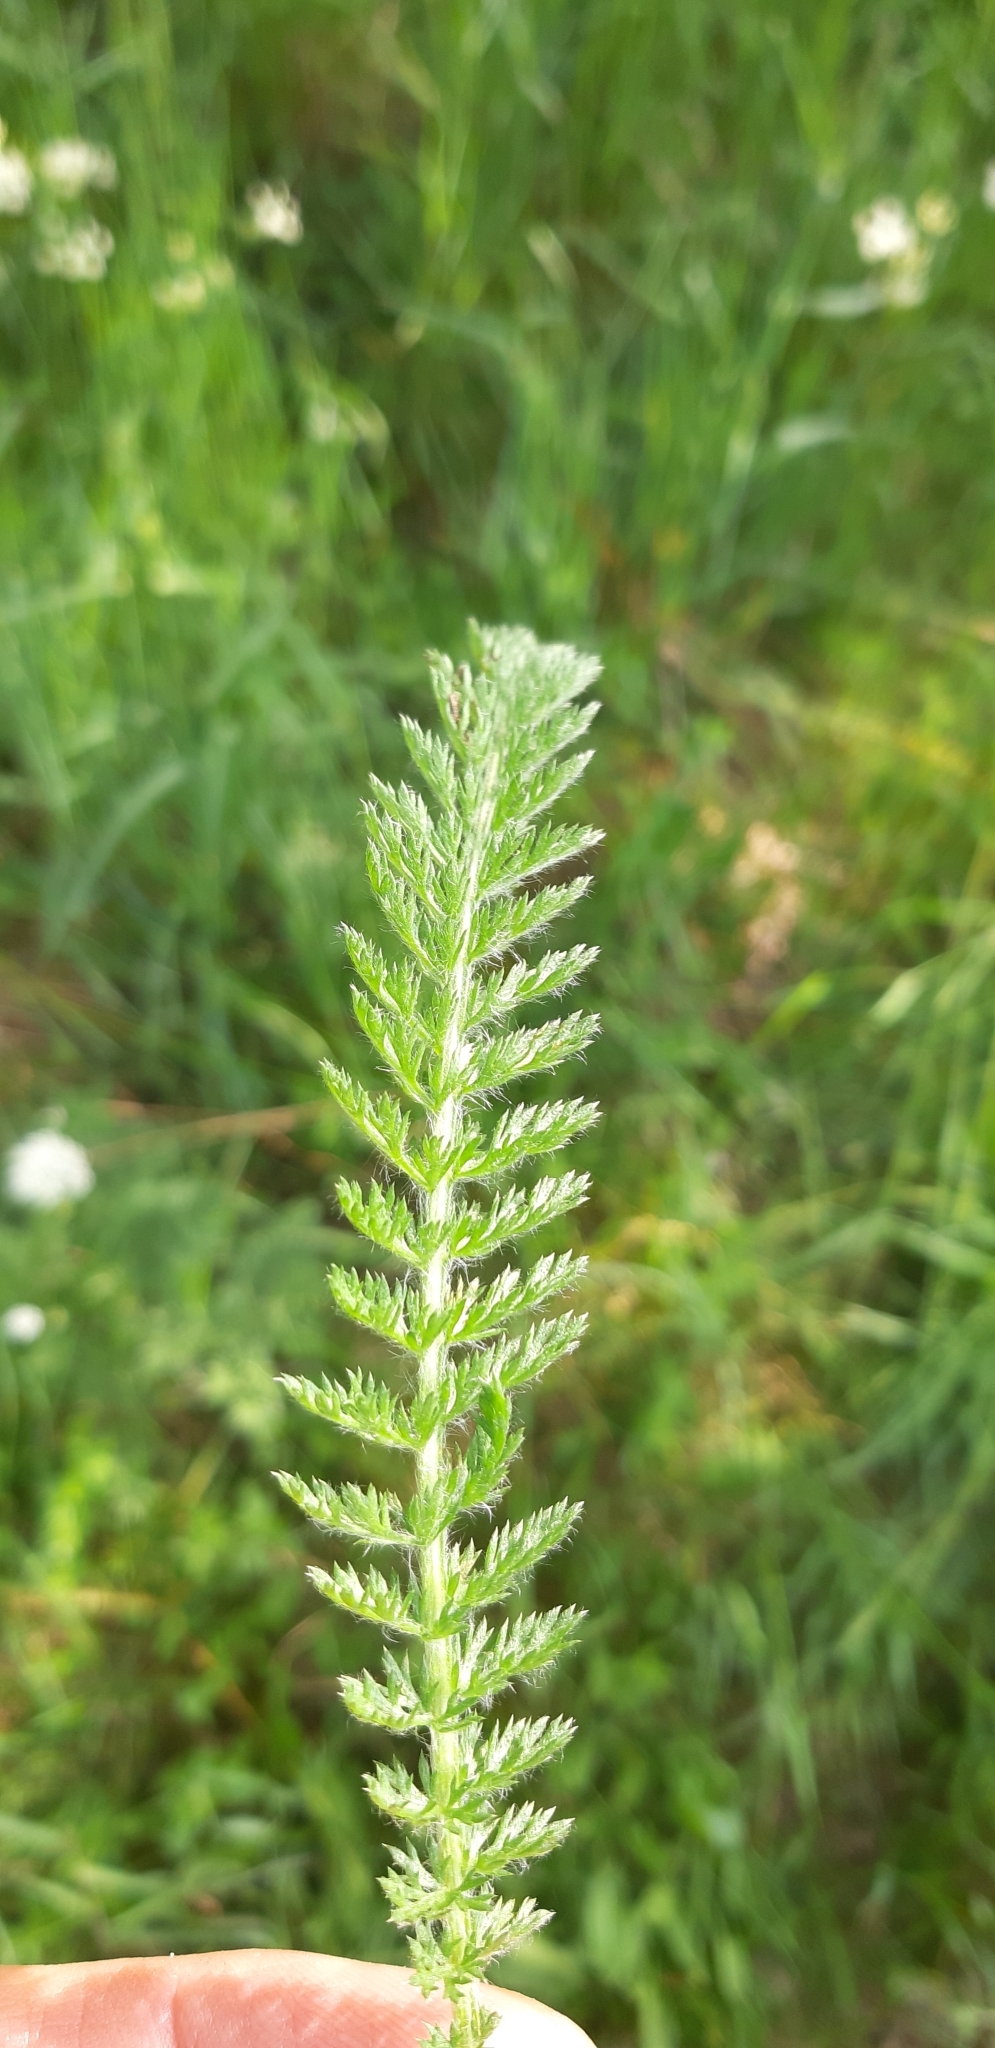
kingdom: Plantae
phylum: Tracheophyta
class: Magnoliopsida
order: Asterales
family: Asteraceae
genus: Achillea
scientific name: Achillea millefolium
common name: Yarrow
